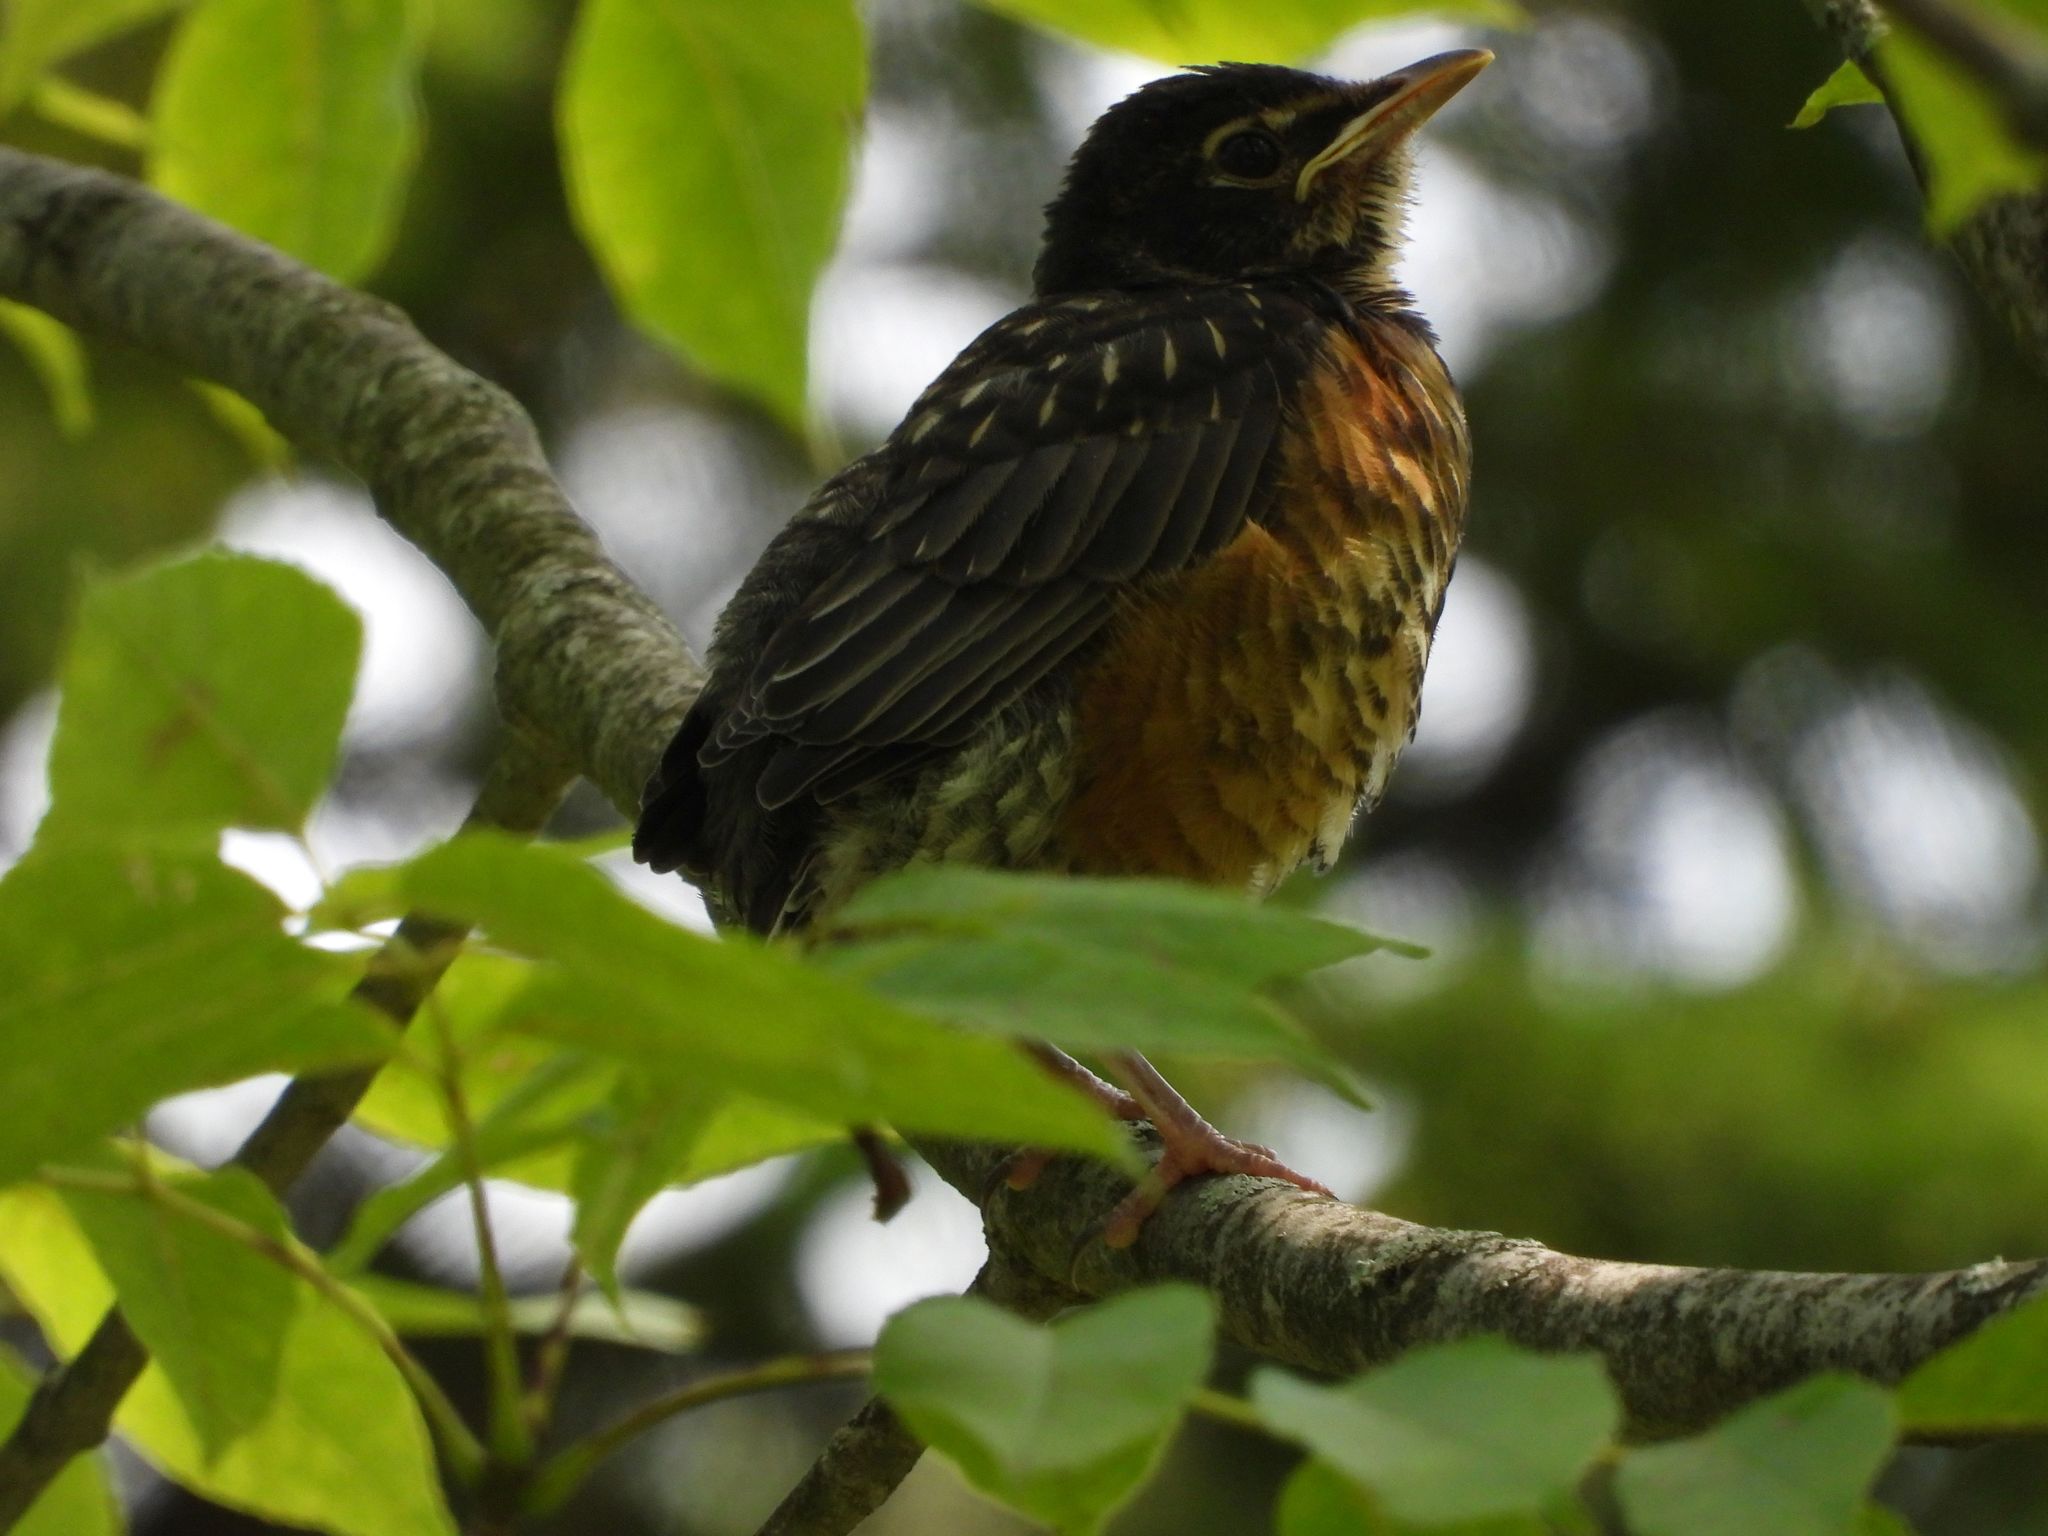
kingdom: Animalia
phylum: Chordata
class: Aves
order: Passeriformes
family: Turdidae
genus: Turdus
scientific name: Turdus migratorius
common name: American robin
